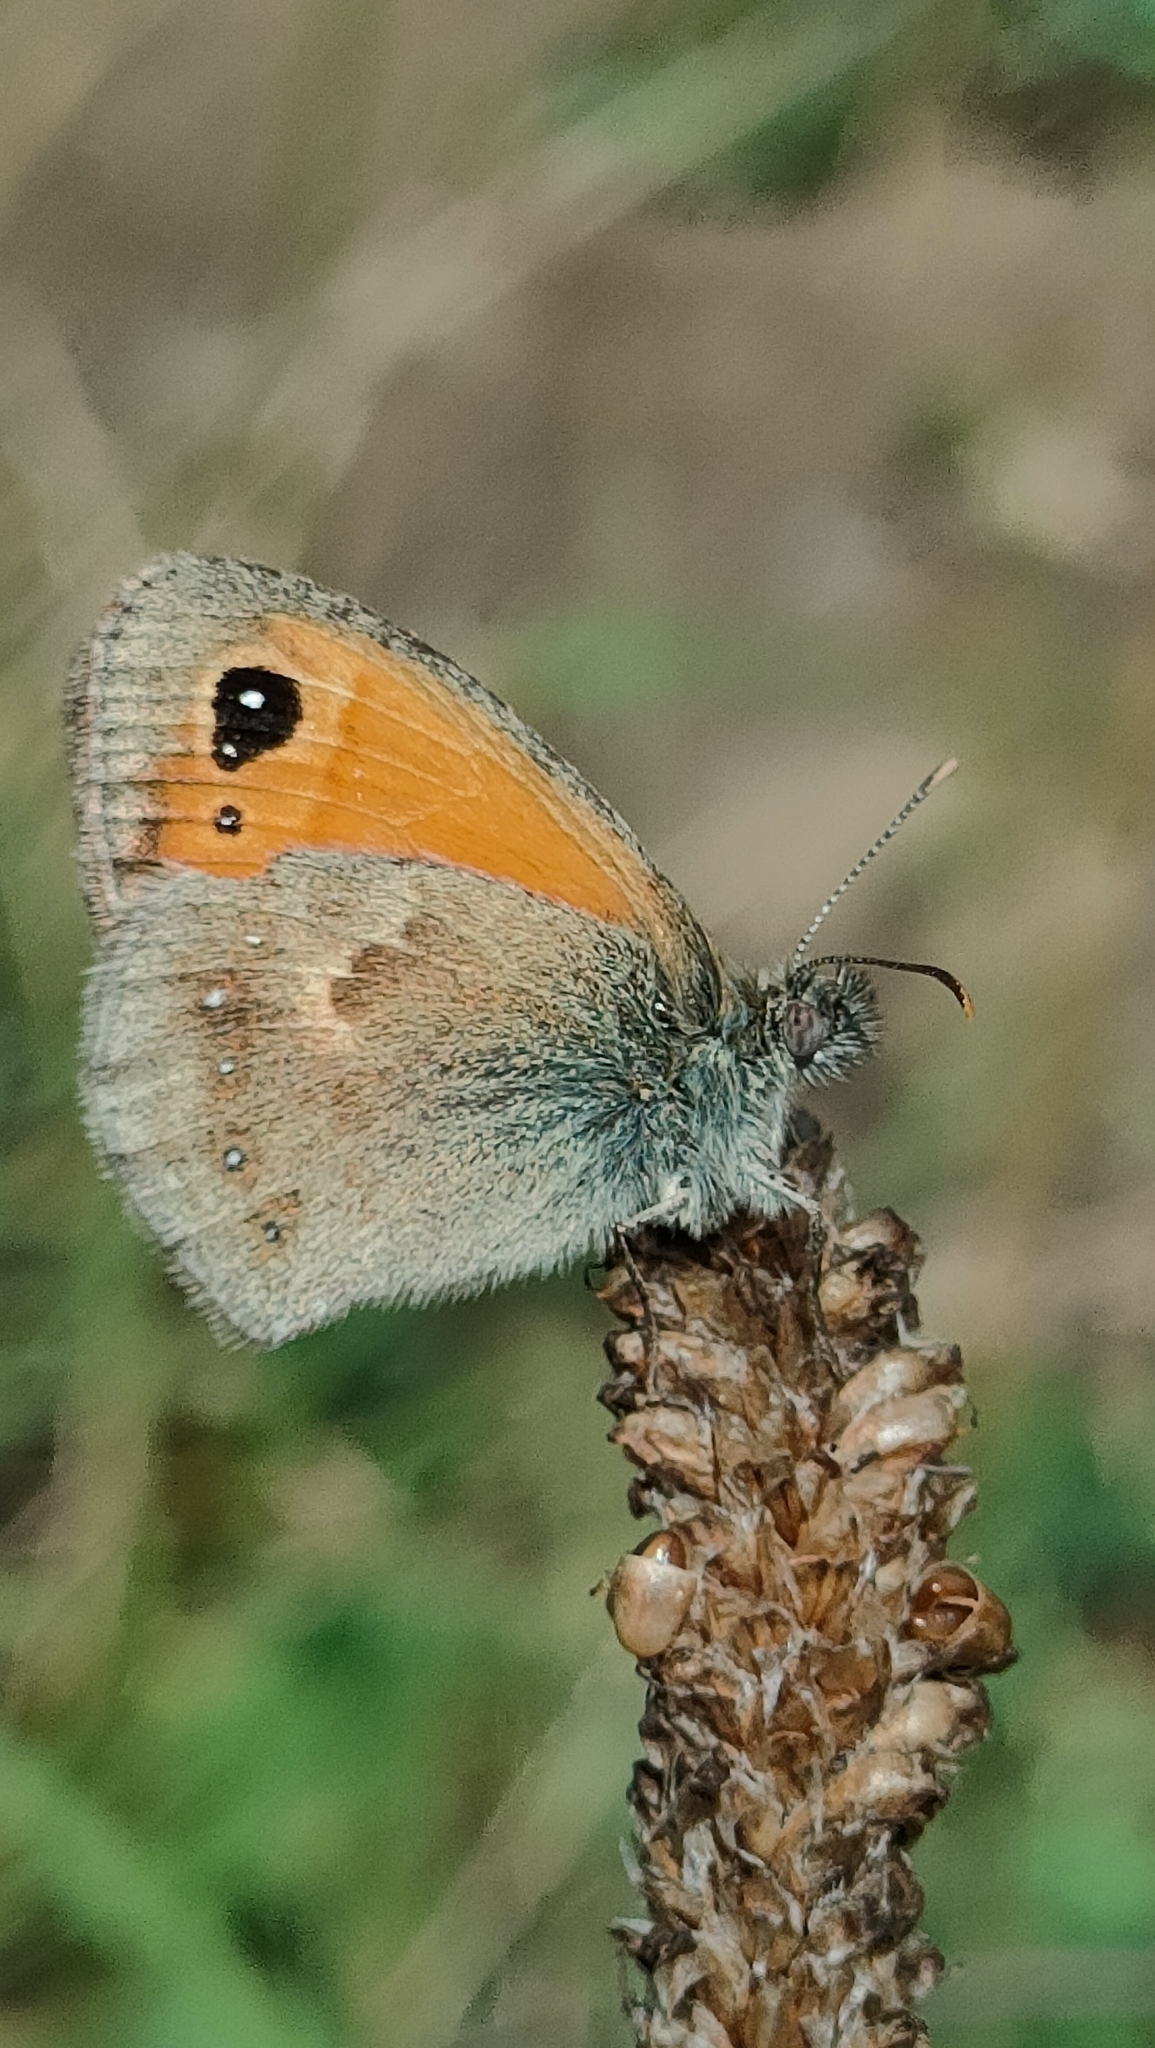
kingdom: Animalia
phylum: Arthropoda
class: Insecta
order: Lepidoptera
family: Nymphalidae
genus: Coenonympha
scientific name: Coenonympha pamphilus
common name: Small heath
